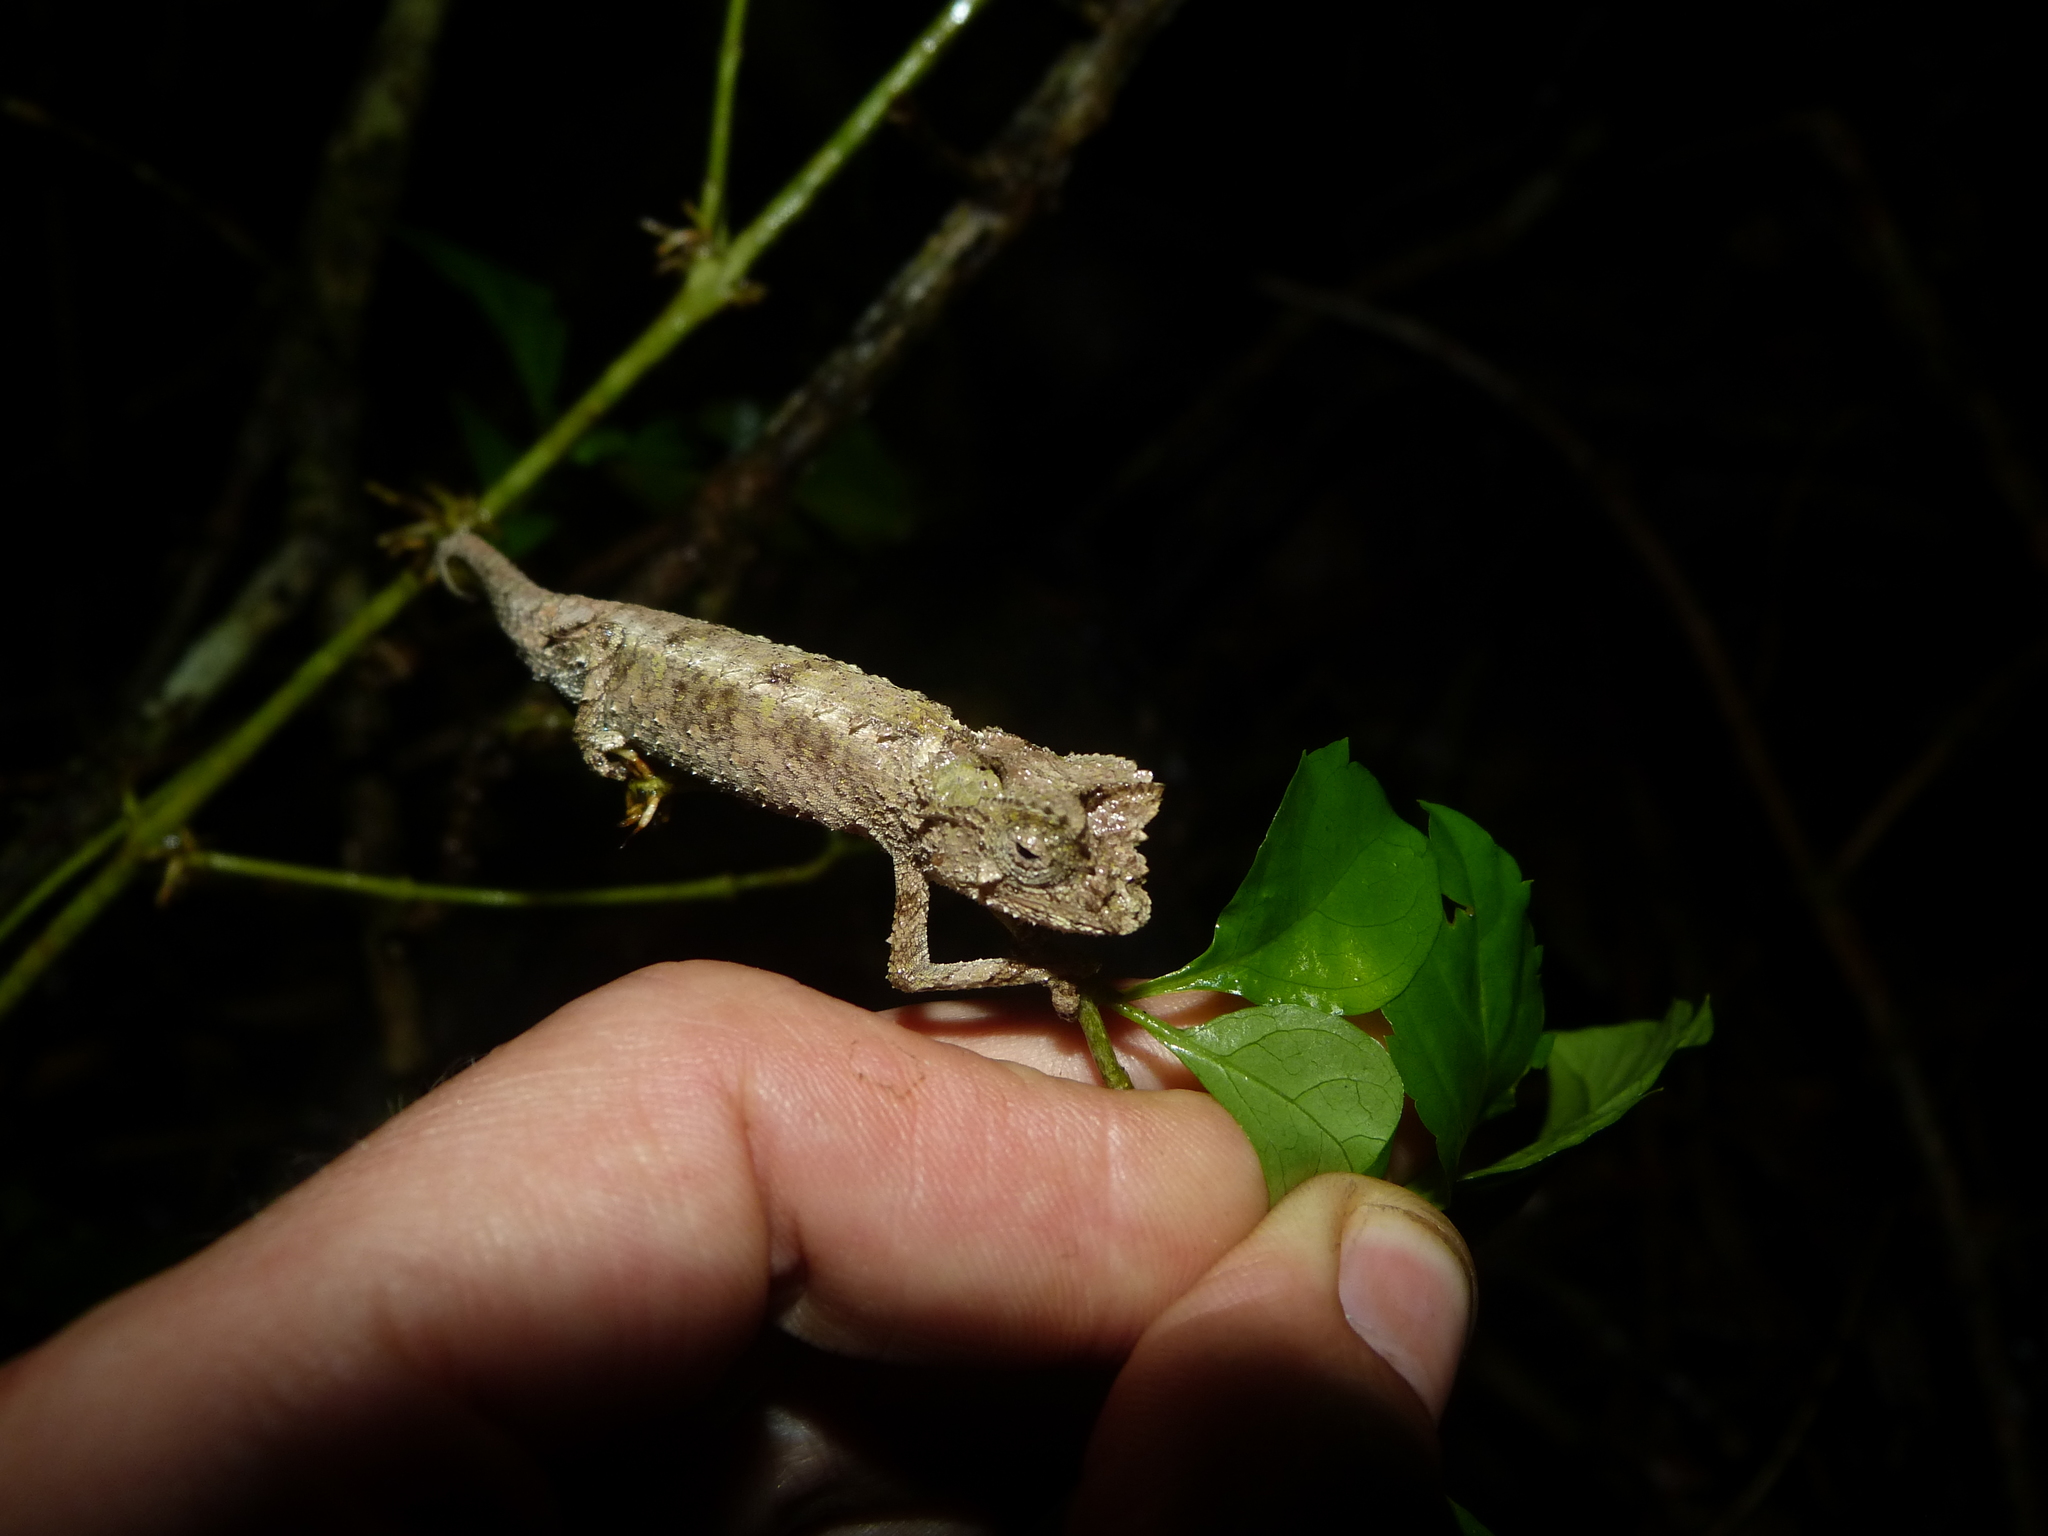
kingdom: Animalia
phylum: Chordata
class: Squamata
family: Chamaeleonidae
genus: Brookesia
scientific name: Brookesia antakarana
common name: Antakarana leaf chameleon
